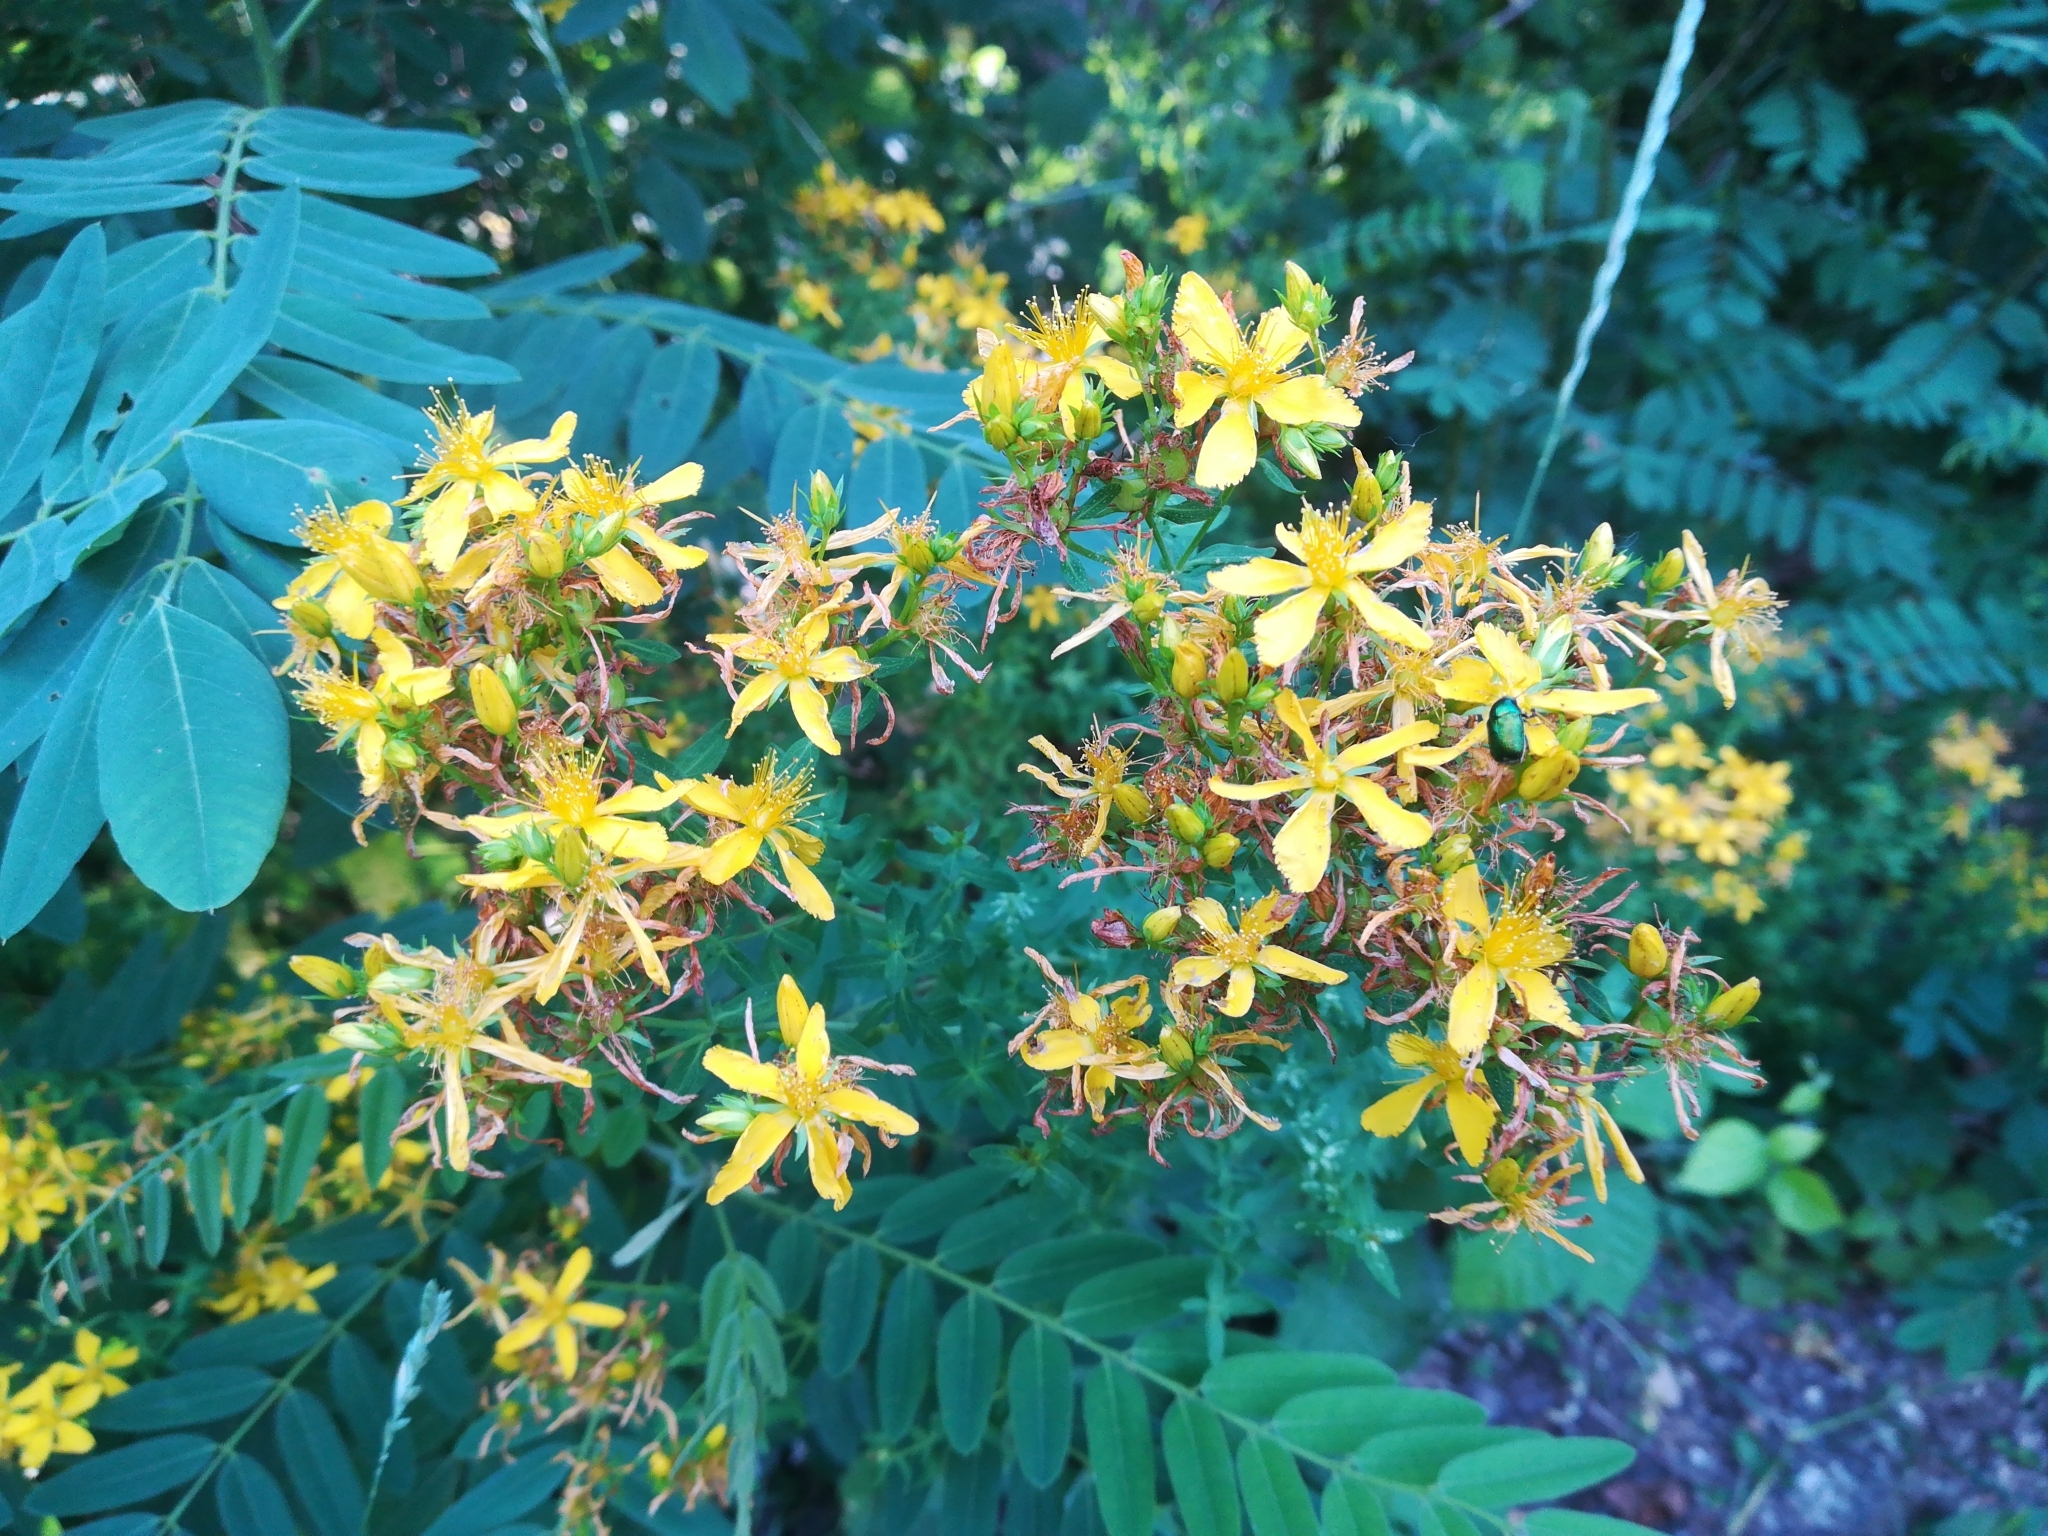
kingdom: Plantae
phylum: Tracheophyta
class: Magnoliopsida
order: Malpighiales
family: Hypericaceae
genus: Hypericum
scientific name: Hypericum perforatum
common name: Common st. johnswort
